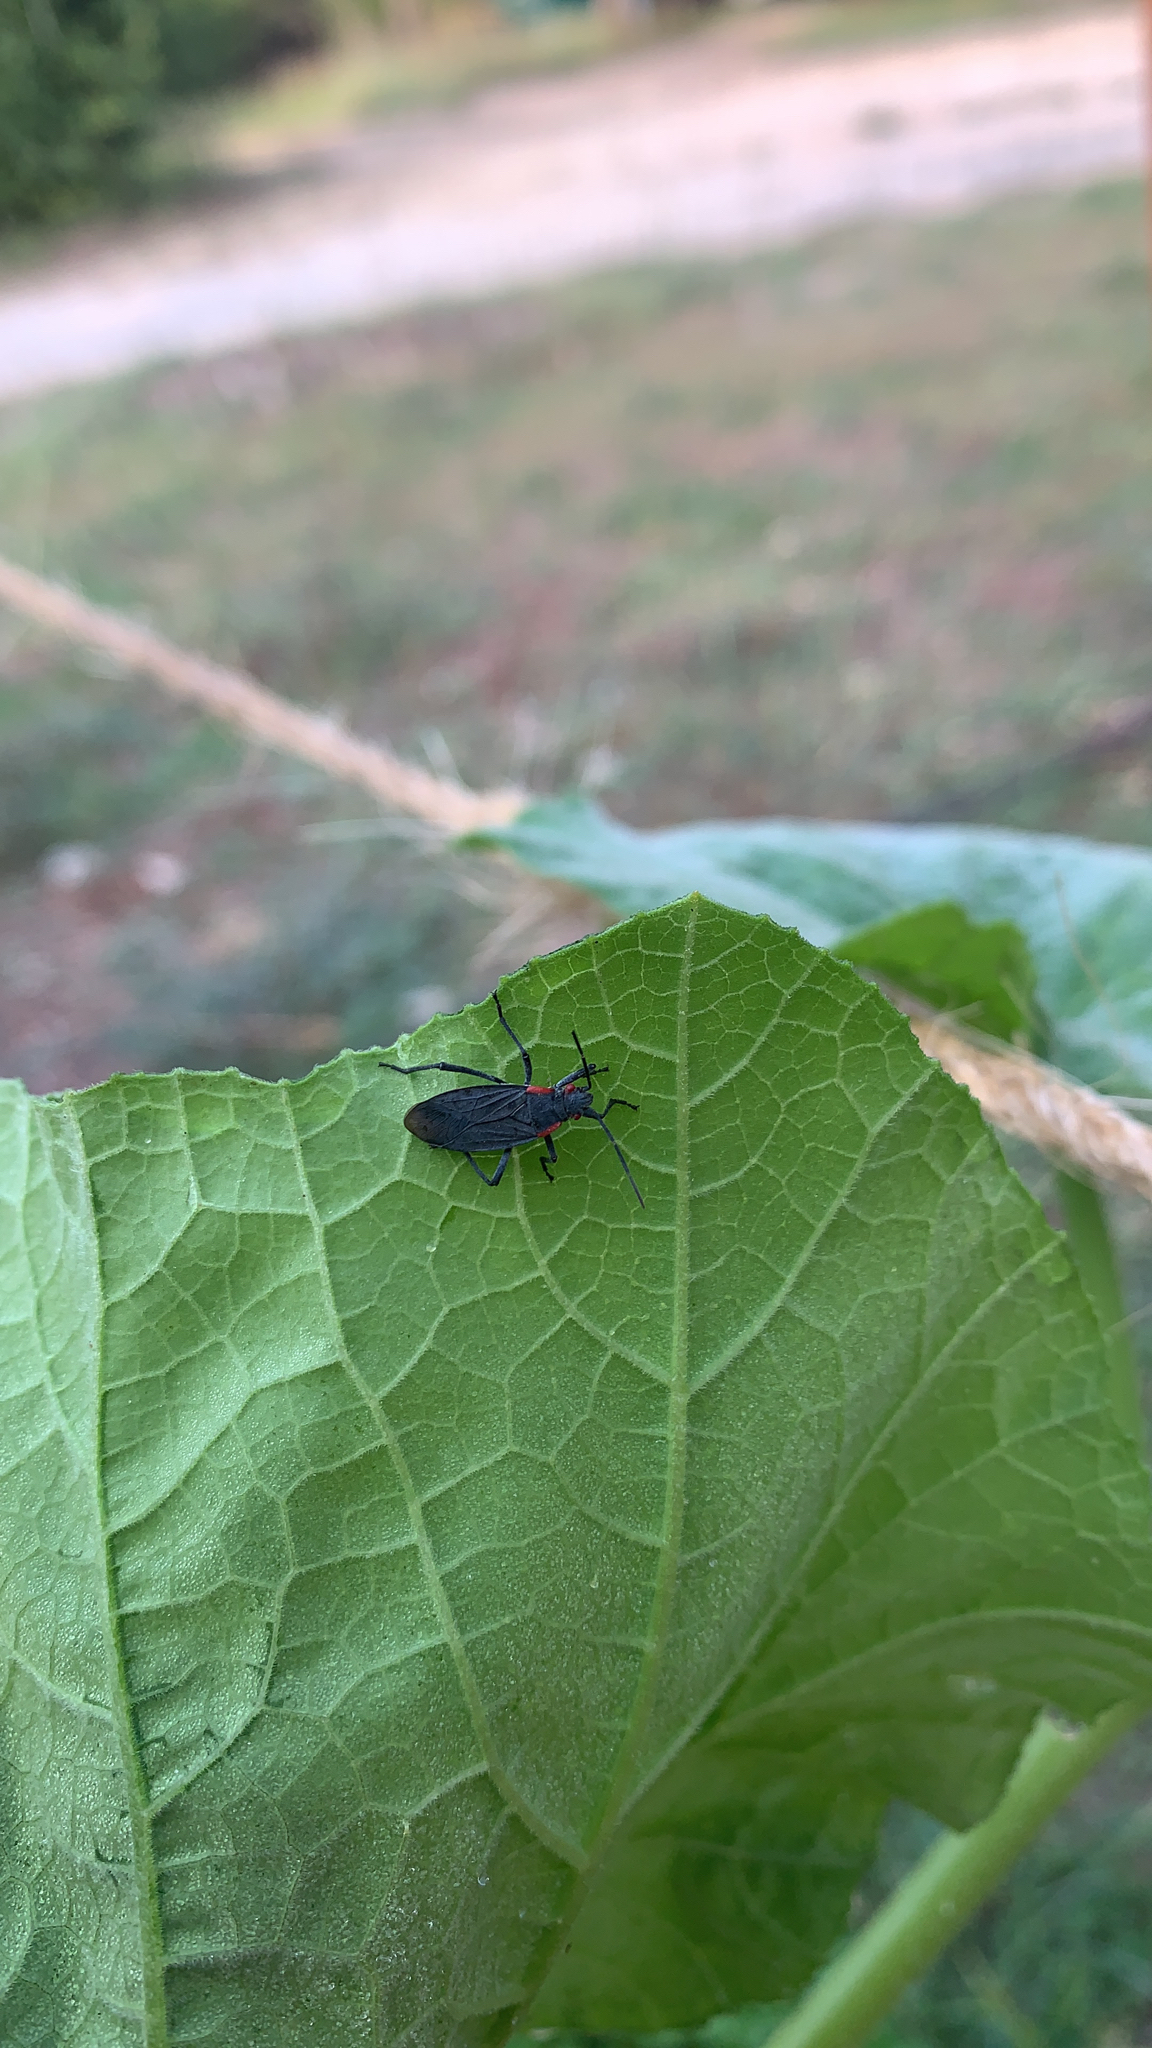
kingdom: Animalia
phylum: Arthropoda
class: Insecta
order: Hemiptera
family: Rhopalidae
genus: Jadera
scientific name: Jadera haematoloma
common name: Red-shouldered bug
